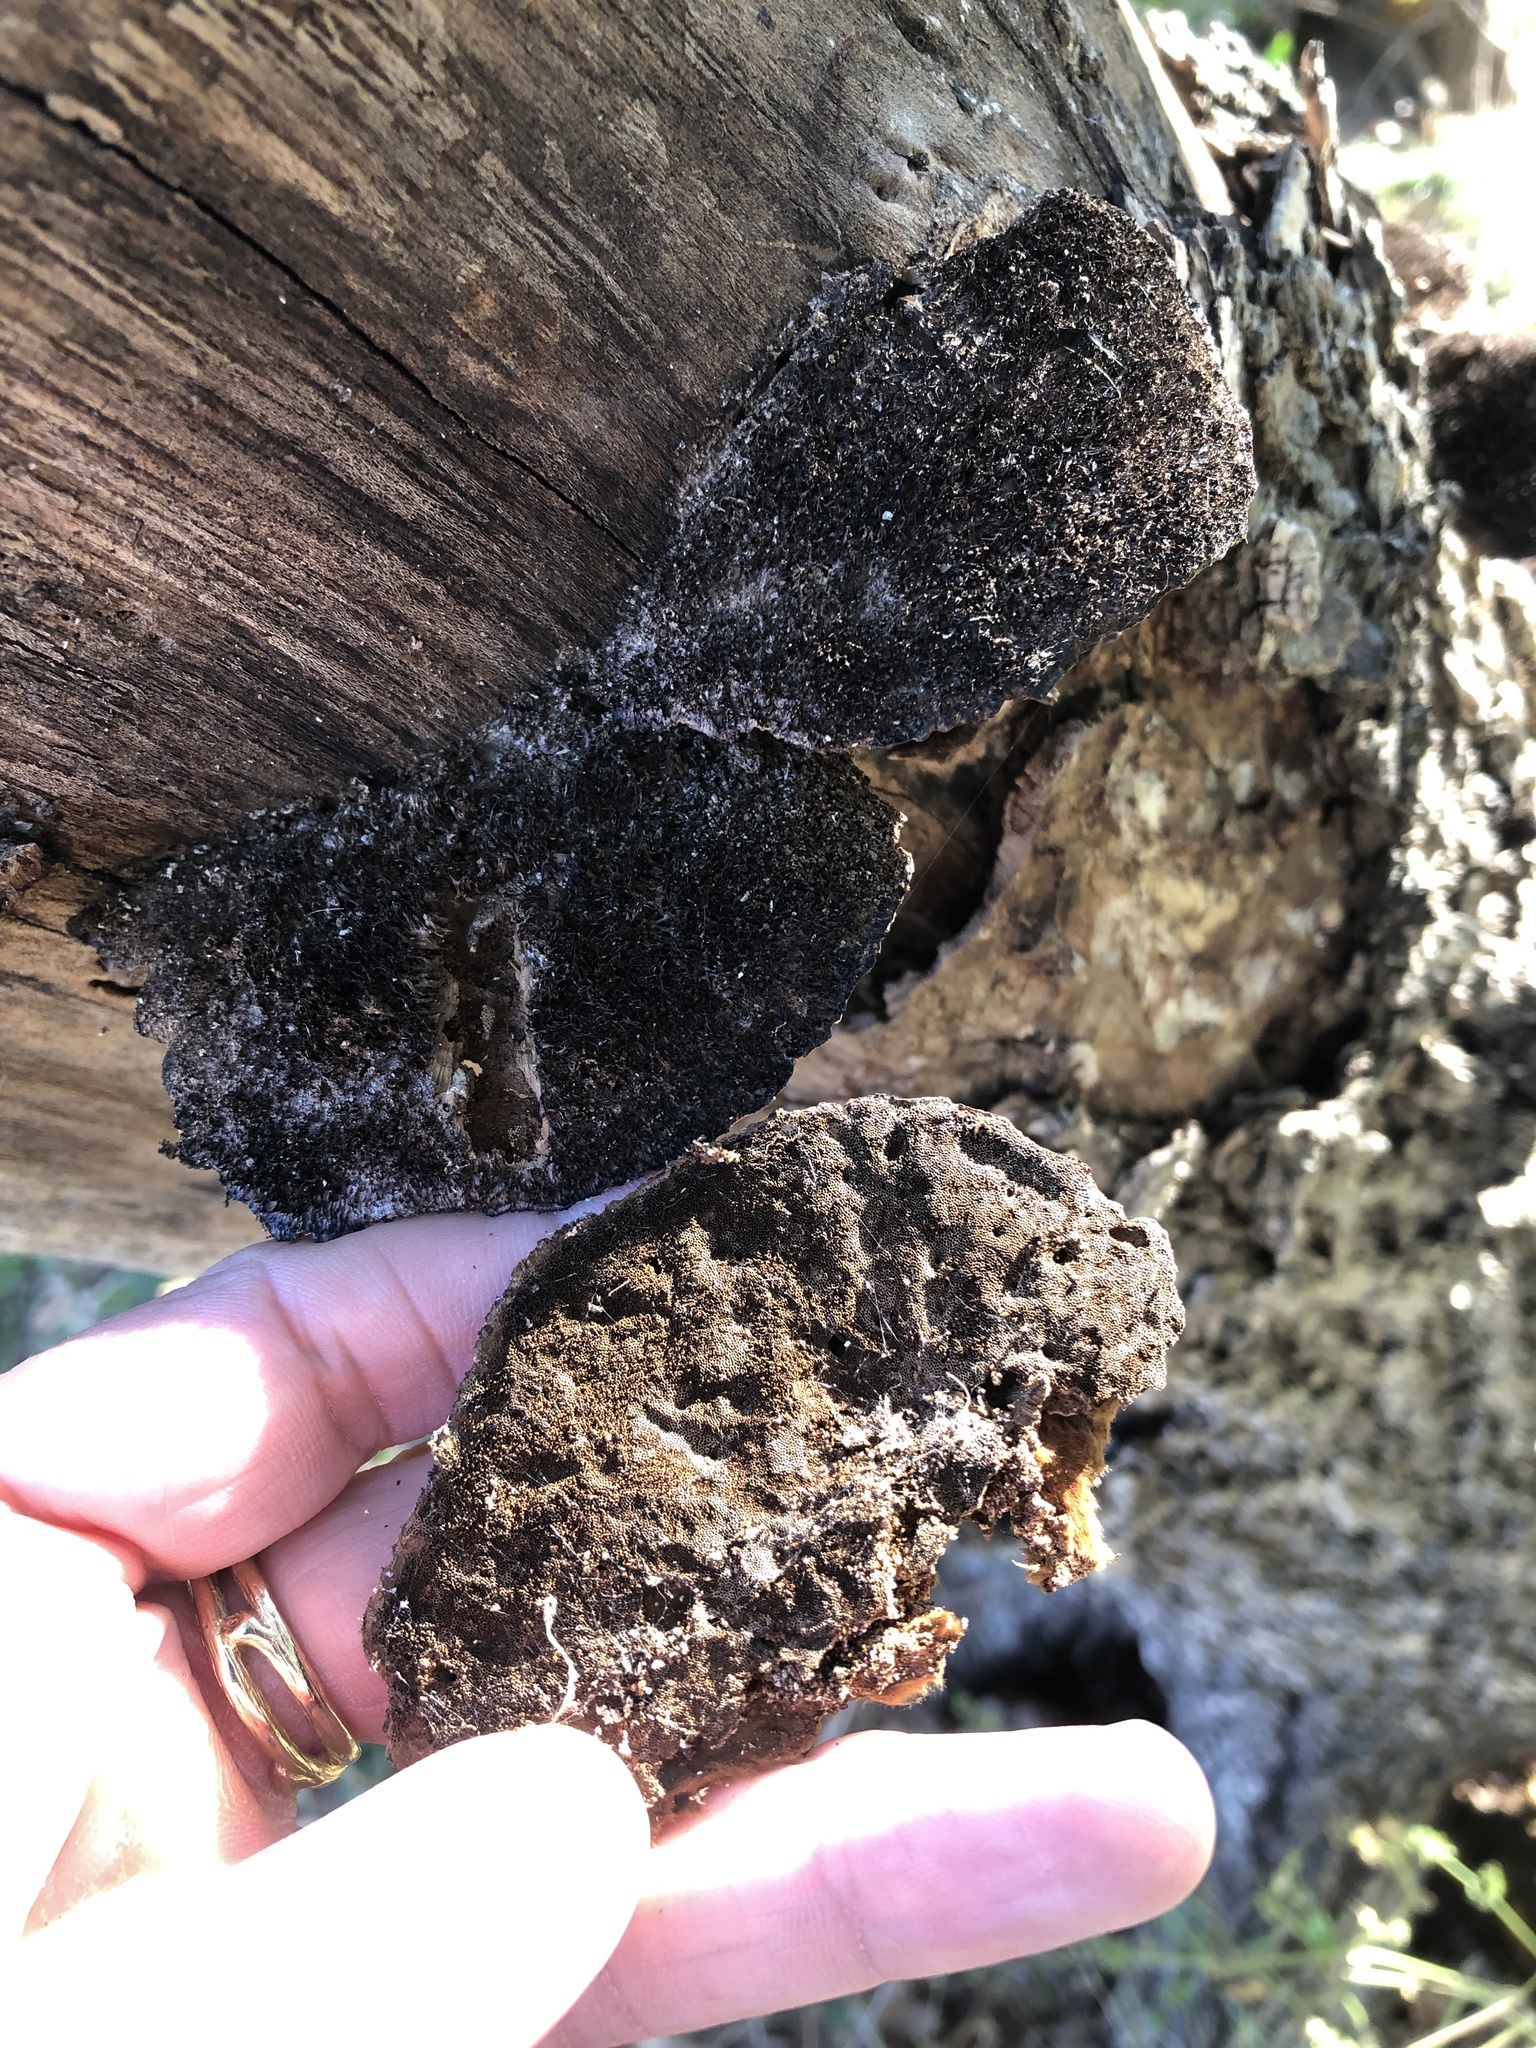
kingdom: Fungi
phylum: Basidiomycota
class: Agaricomycetes
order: Polyporales
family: Cerrenaceae
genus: Cerrena
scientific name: Cerrena hydnoides
